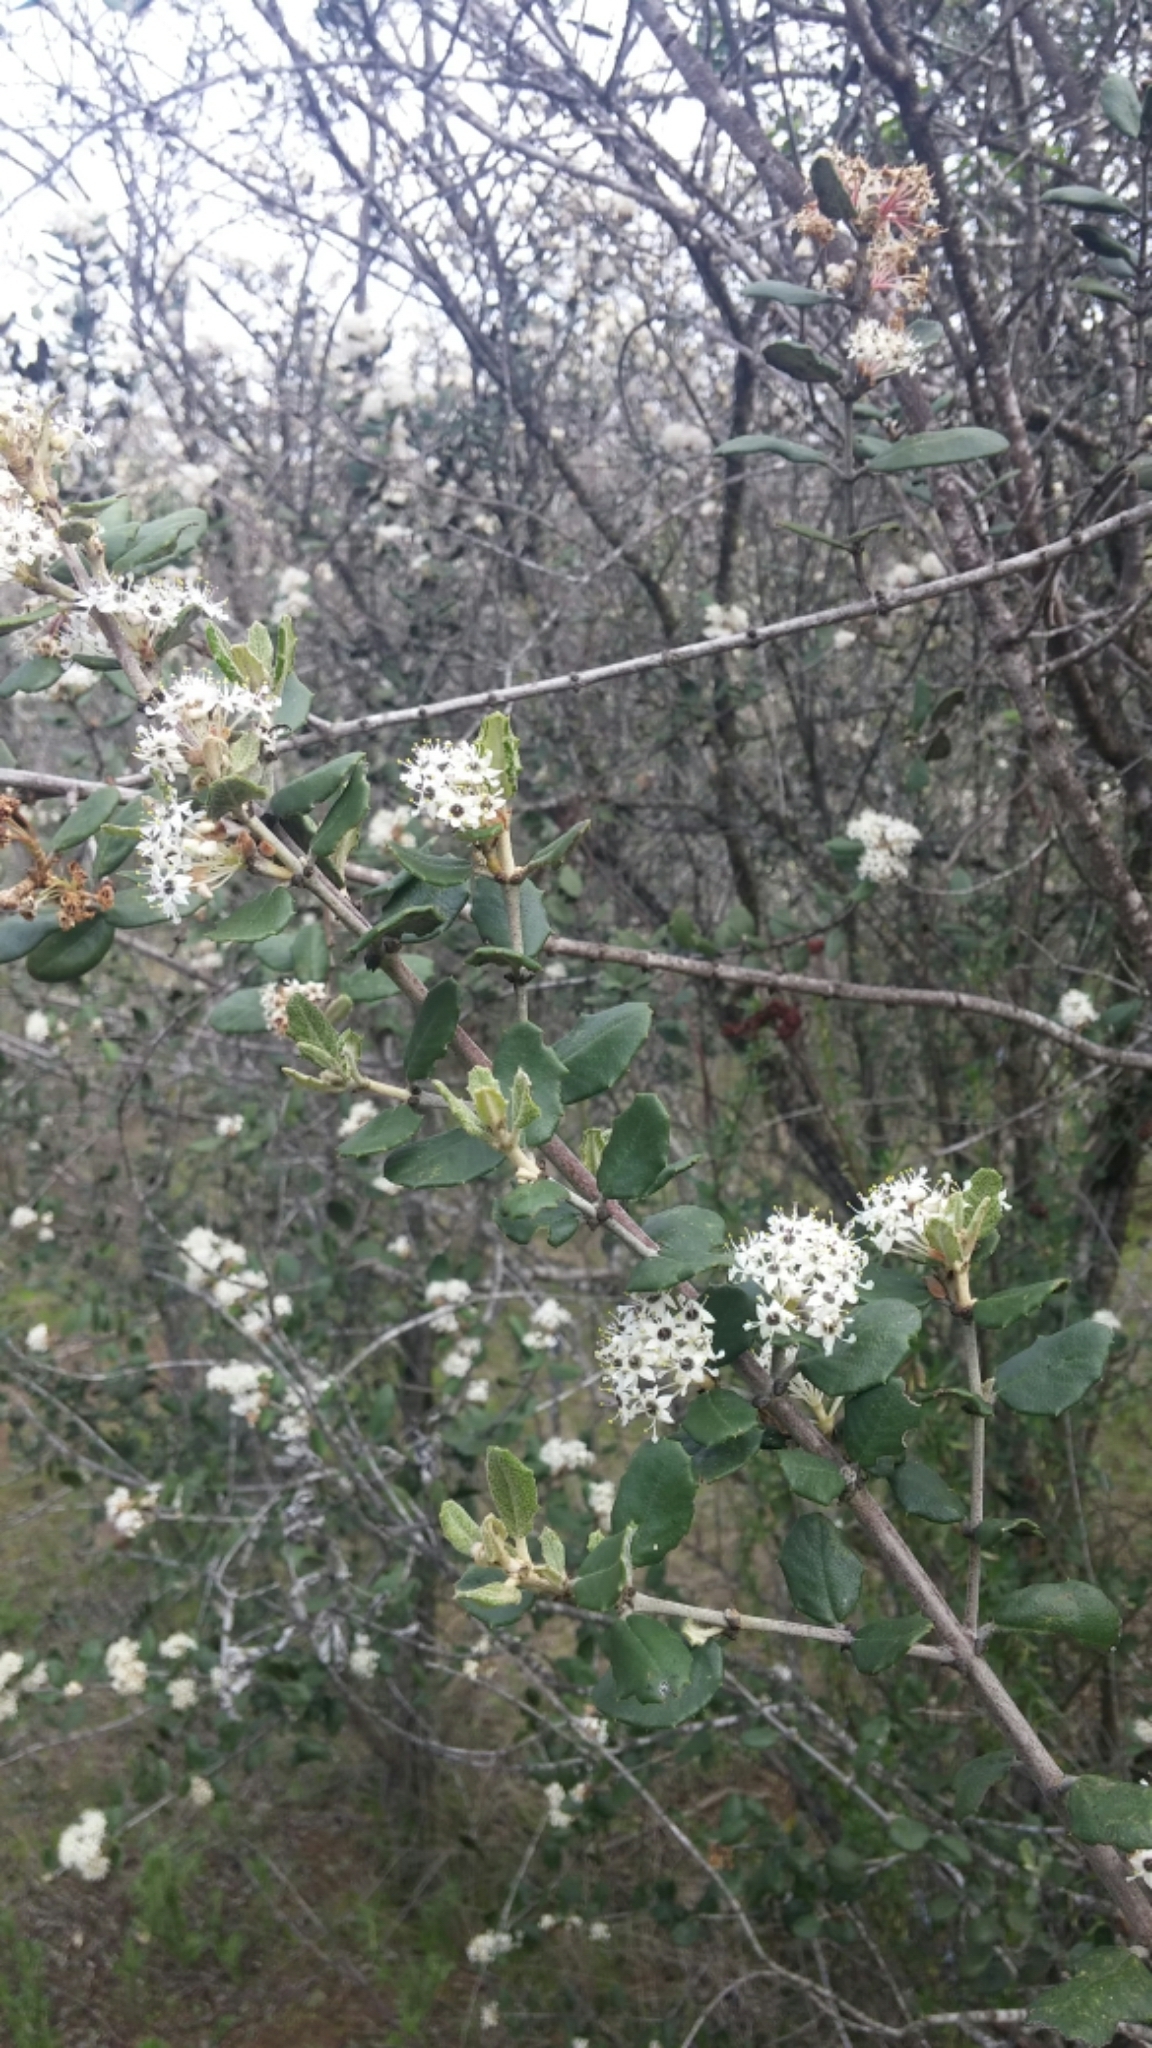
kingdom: Plantae
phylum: Tracheophyta
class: Magnoliopsida
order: Rosales
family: Rhamnaceae
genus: Ceanothus
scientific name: Ceanothus crassifolius
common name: Hoaryleaf ceanothus
